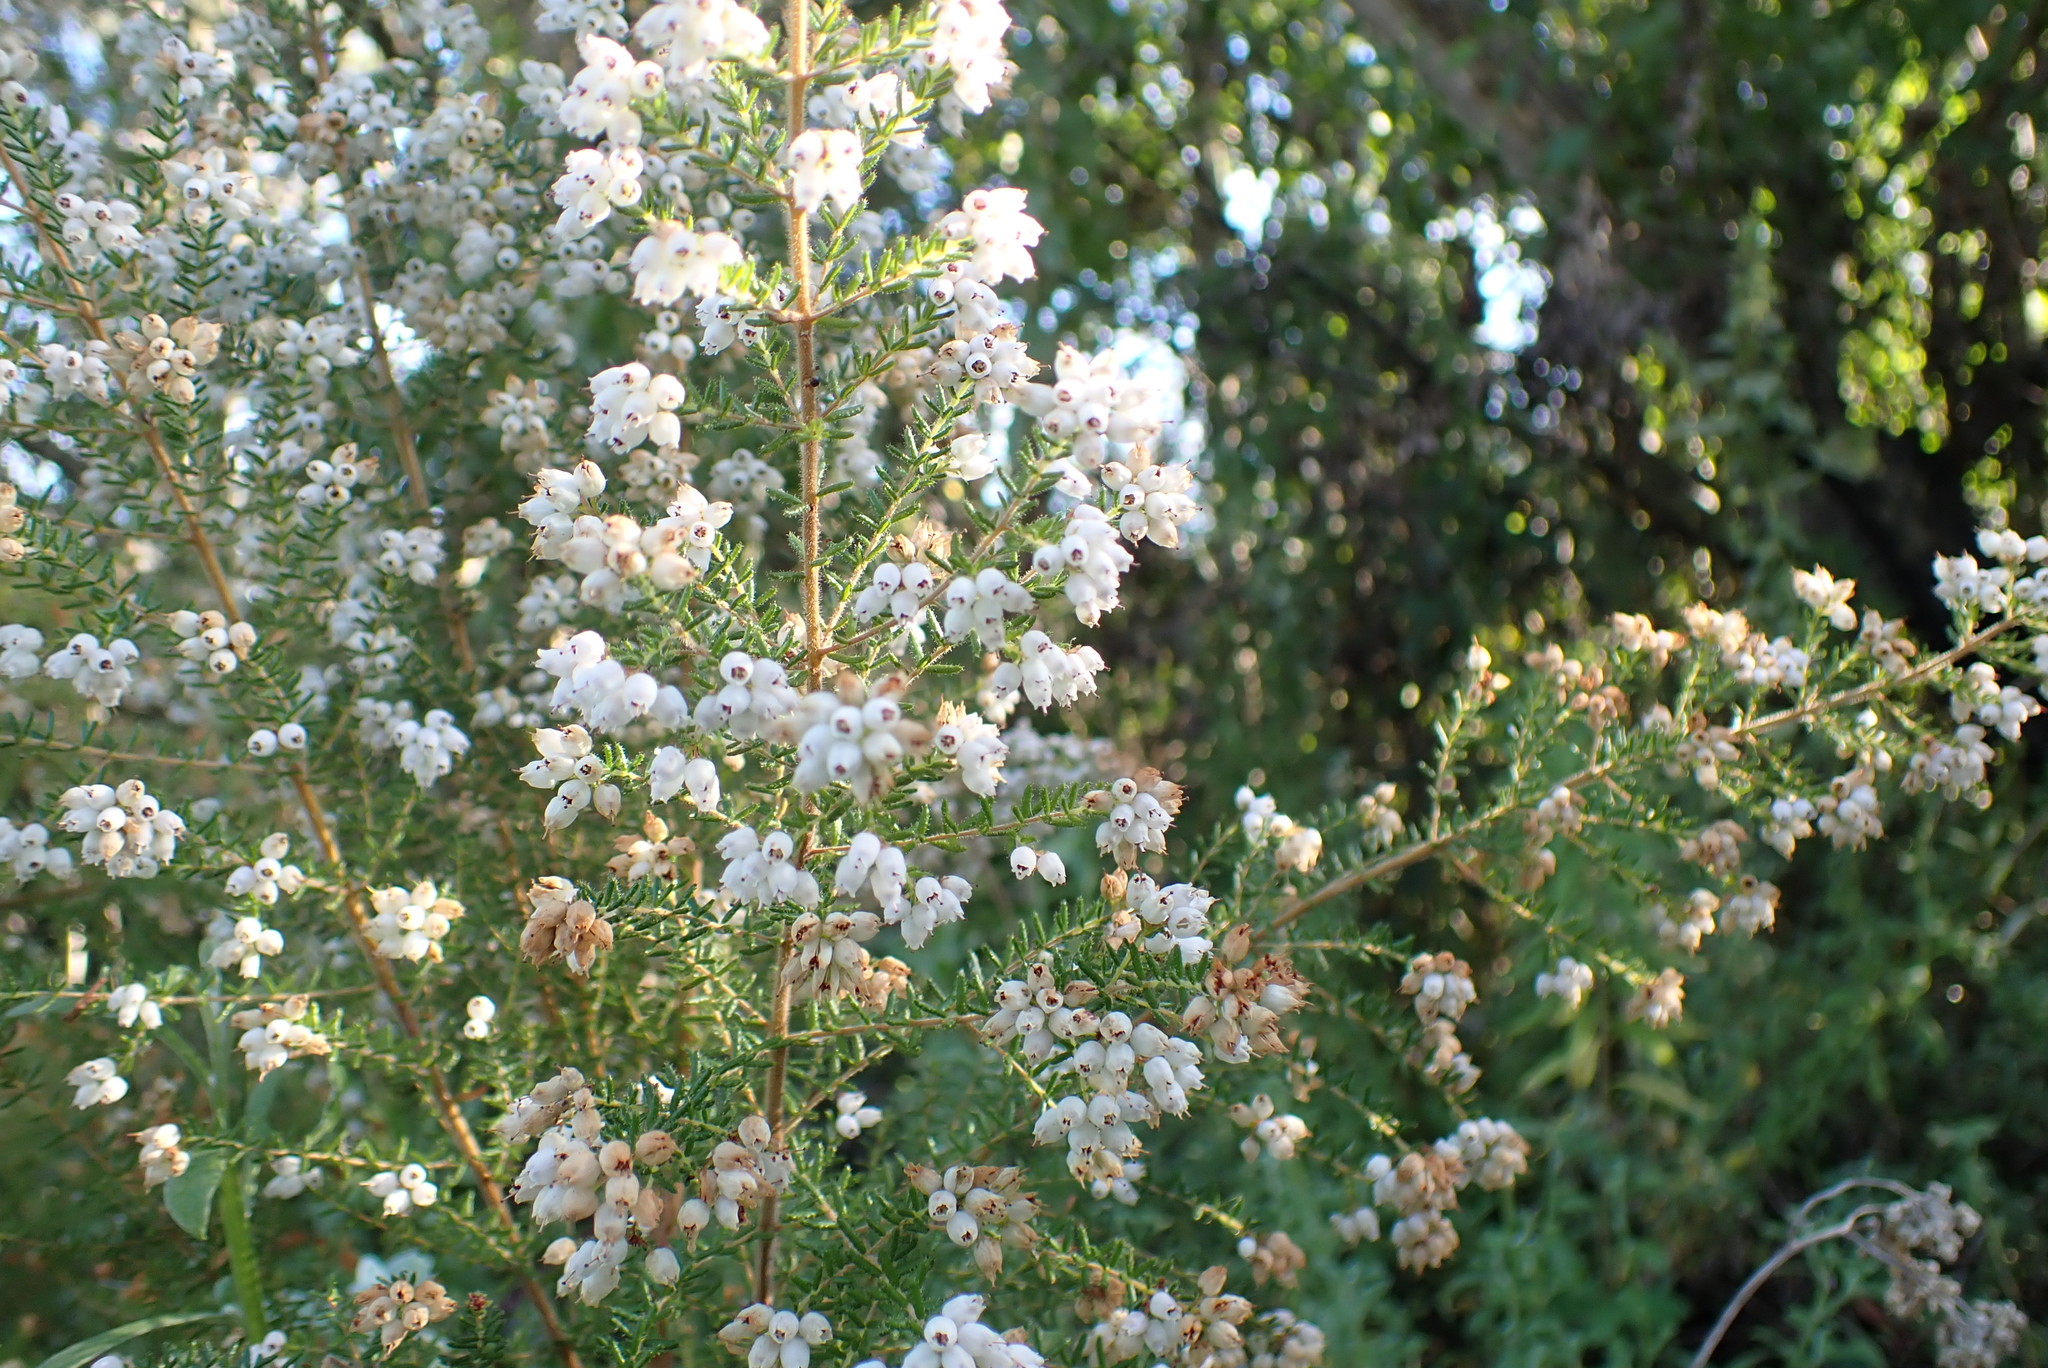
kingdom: Plantae
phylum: Tracheophyta
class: Magnoliopsida
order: Ericales
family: Ericaceae
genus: Erica
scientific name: Erica scabriuscula
